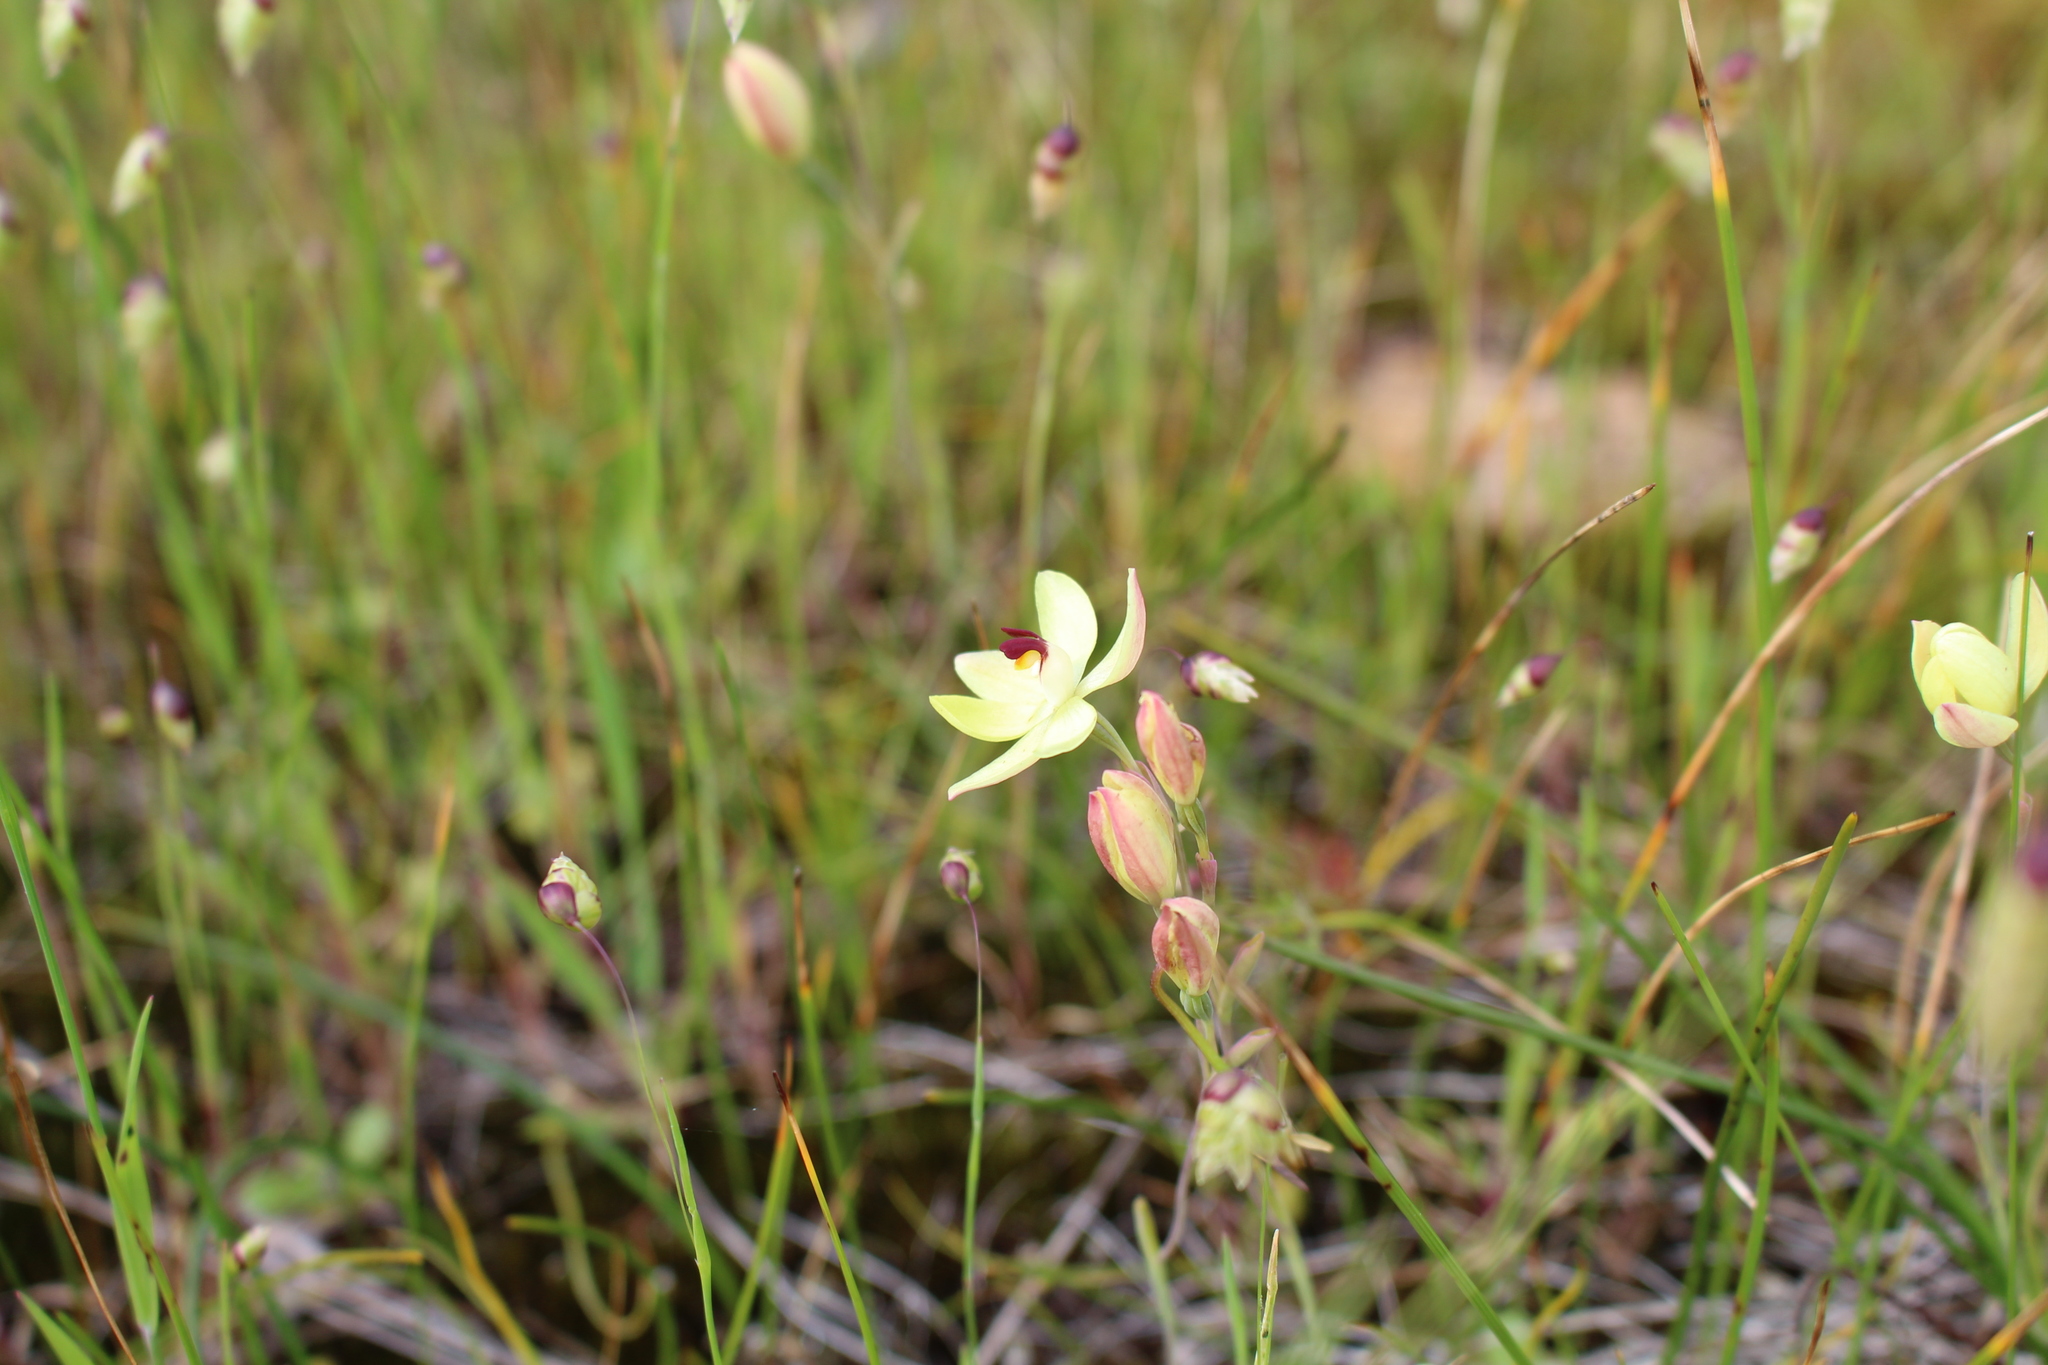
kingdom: Plantae
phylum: Tracheophyta
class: Liliopsida
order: Asparagales
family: Orchidaceae
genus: Thelymitra
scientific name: Thelymitra antennifera
